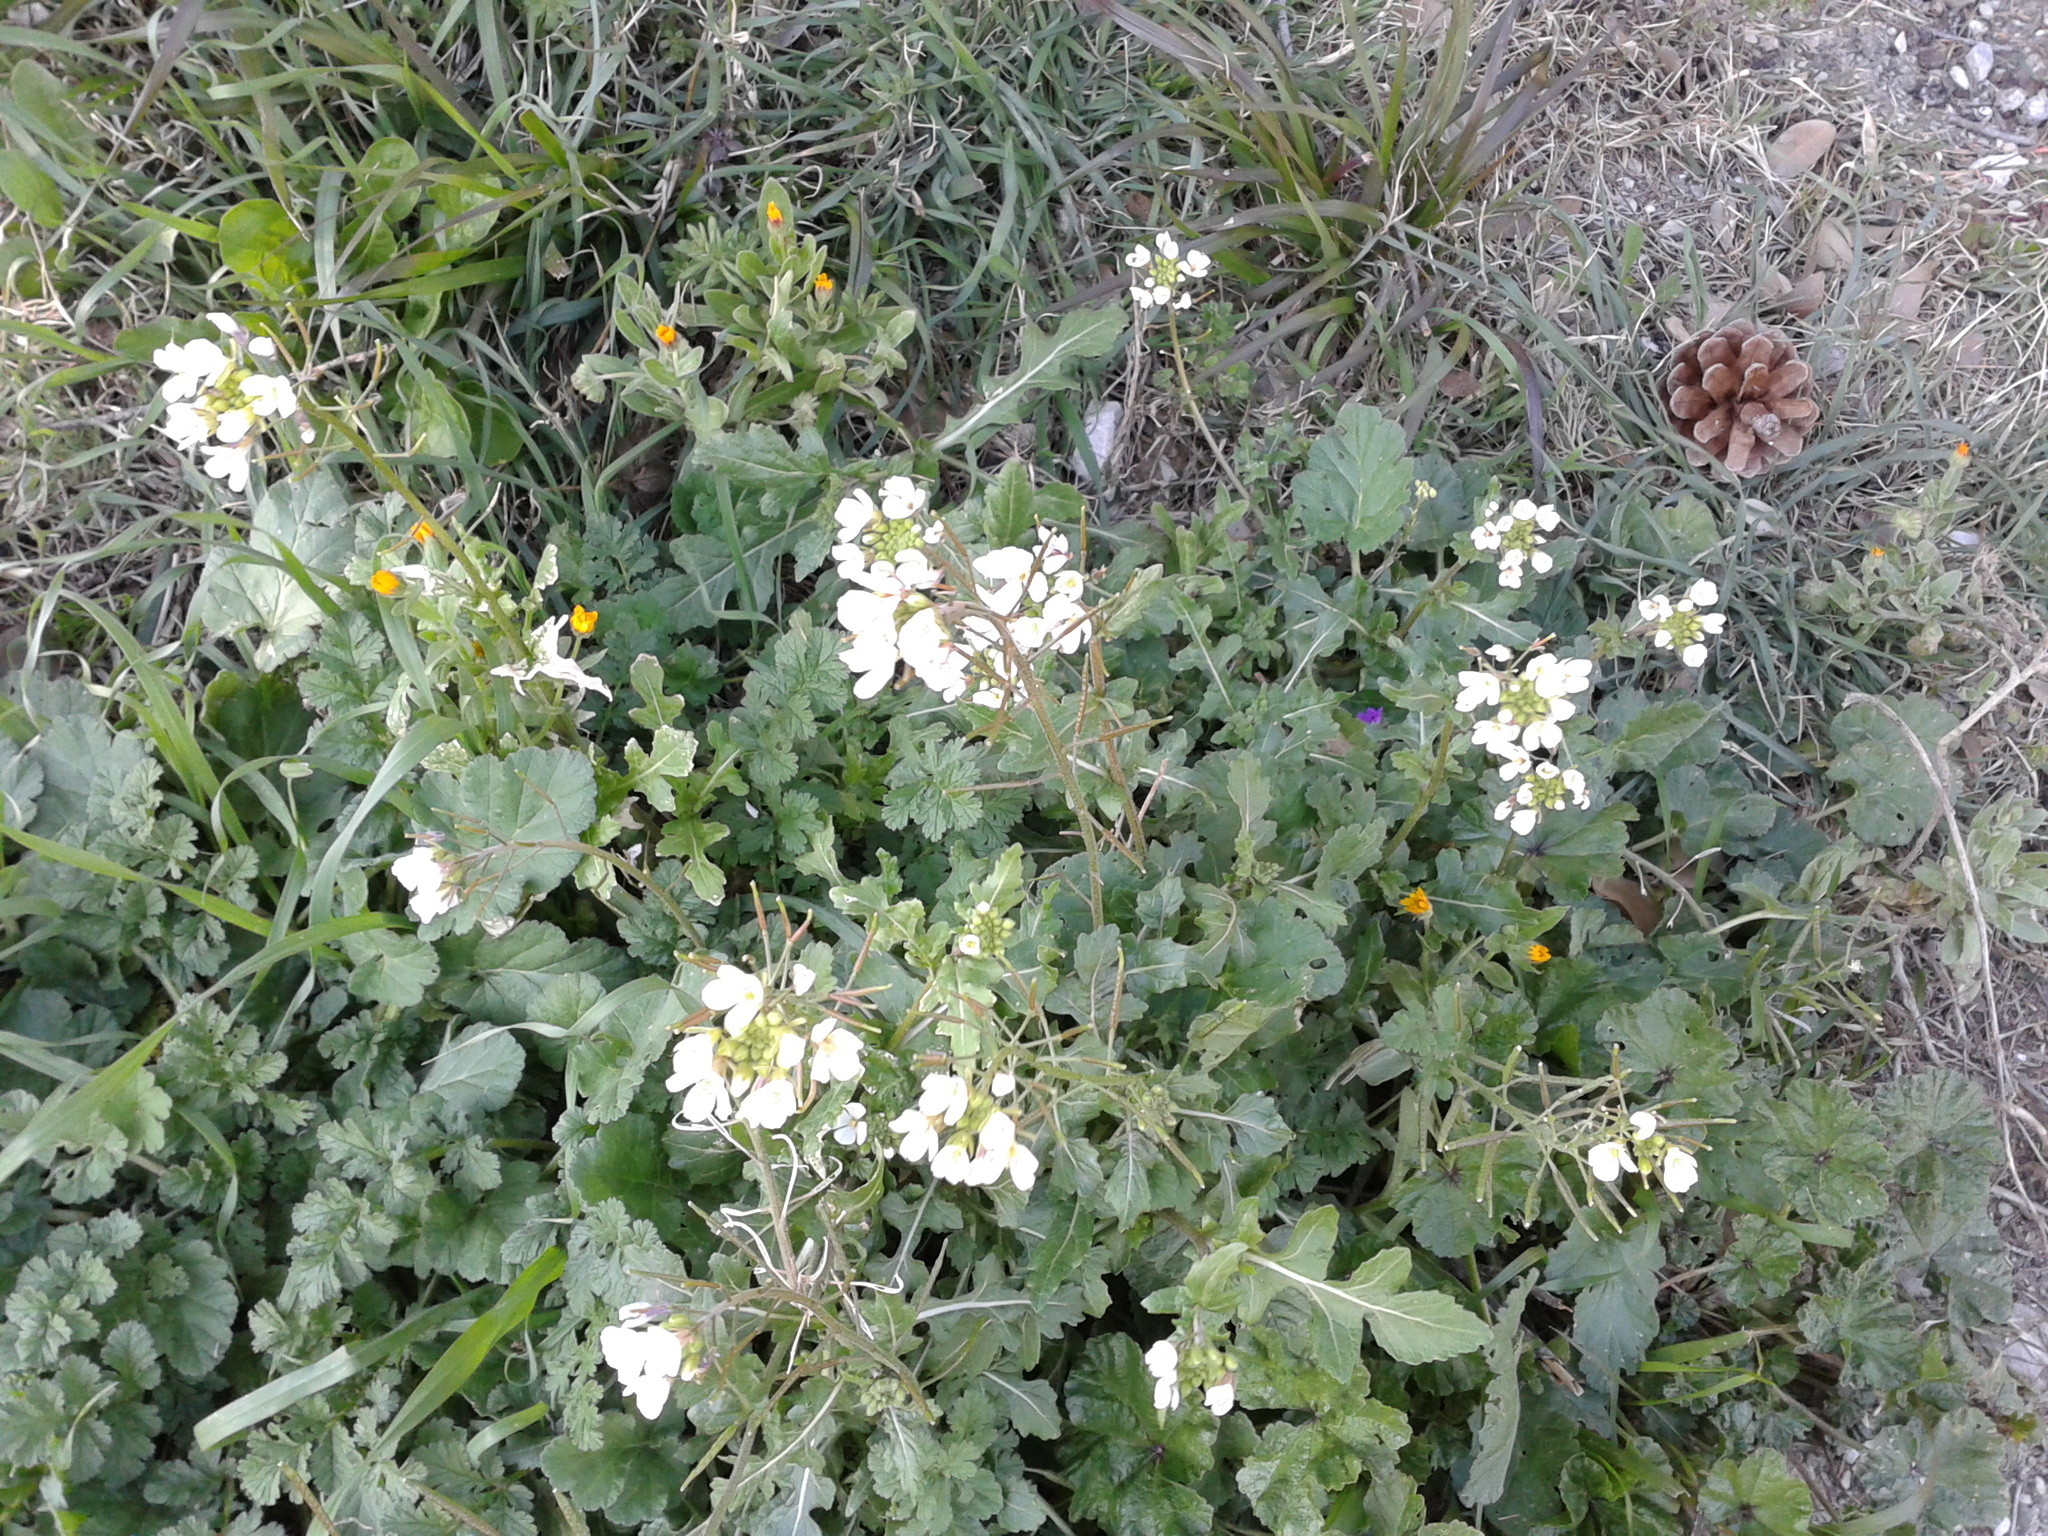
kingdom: Plantae
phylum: Tracheophyta
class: Magnoliopsida
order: Brassicales
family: Brassicaceae
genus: Diplotaxis
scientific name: Diplotaxis erucoides
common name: White rocket
